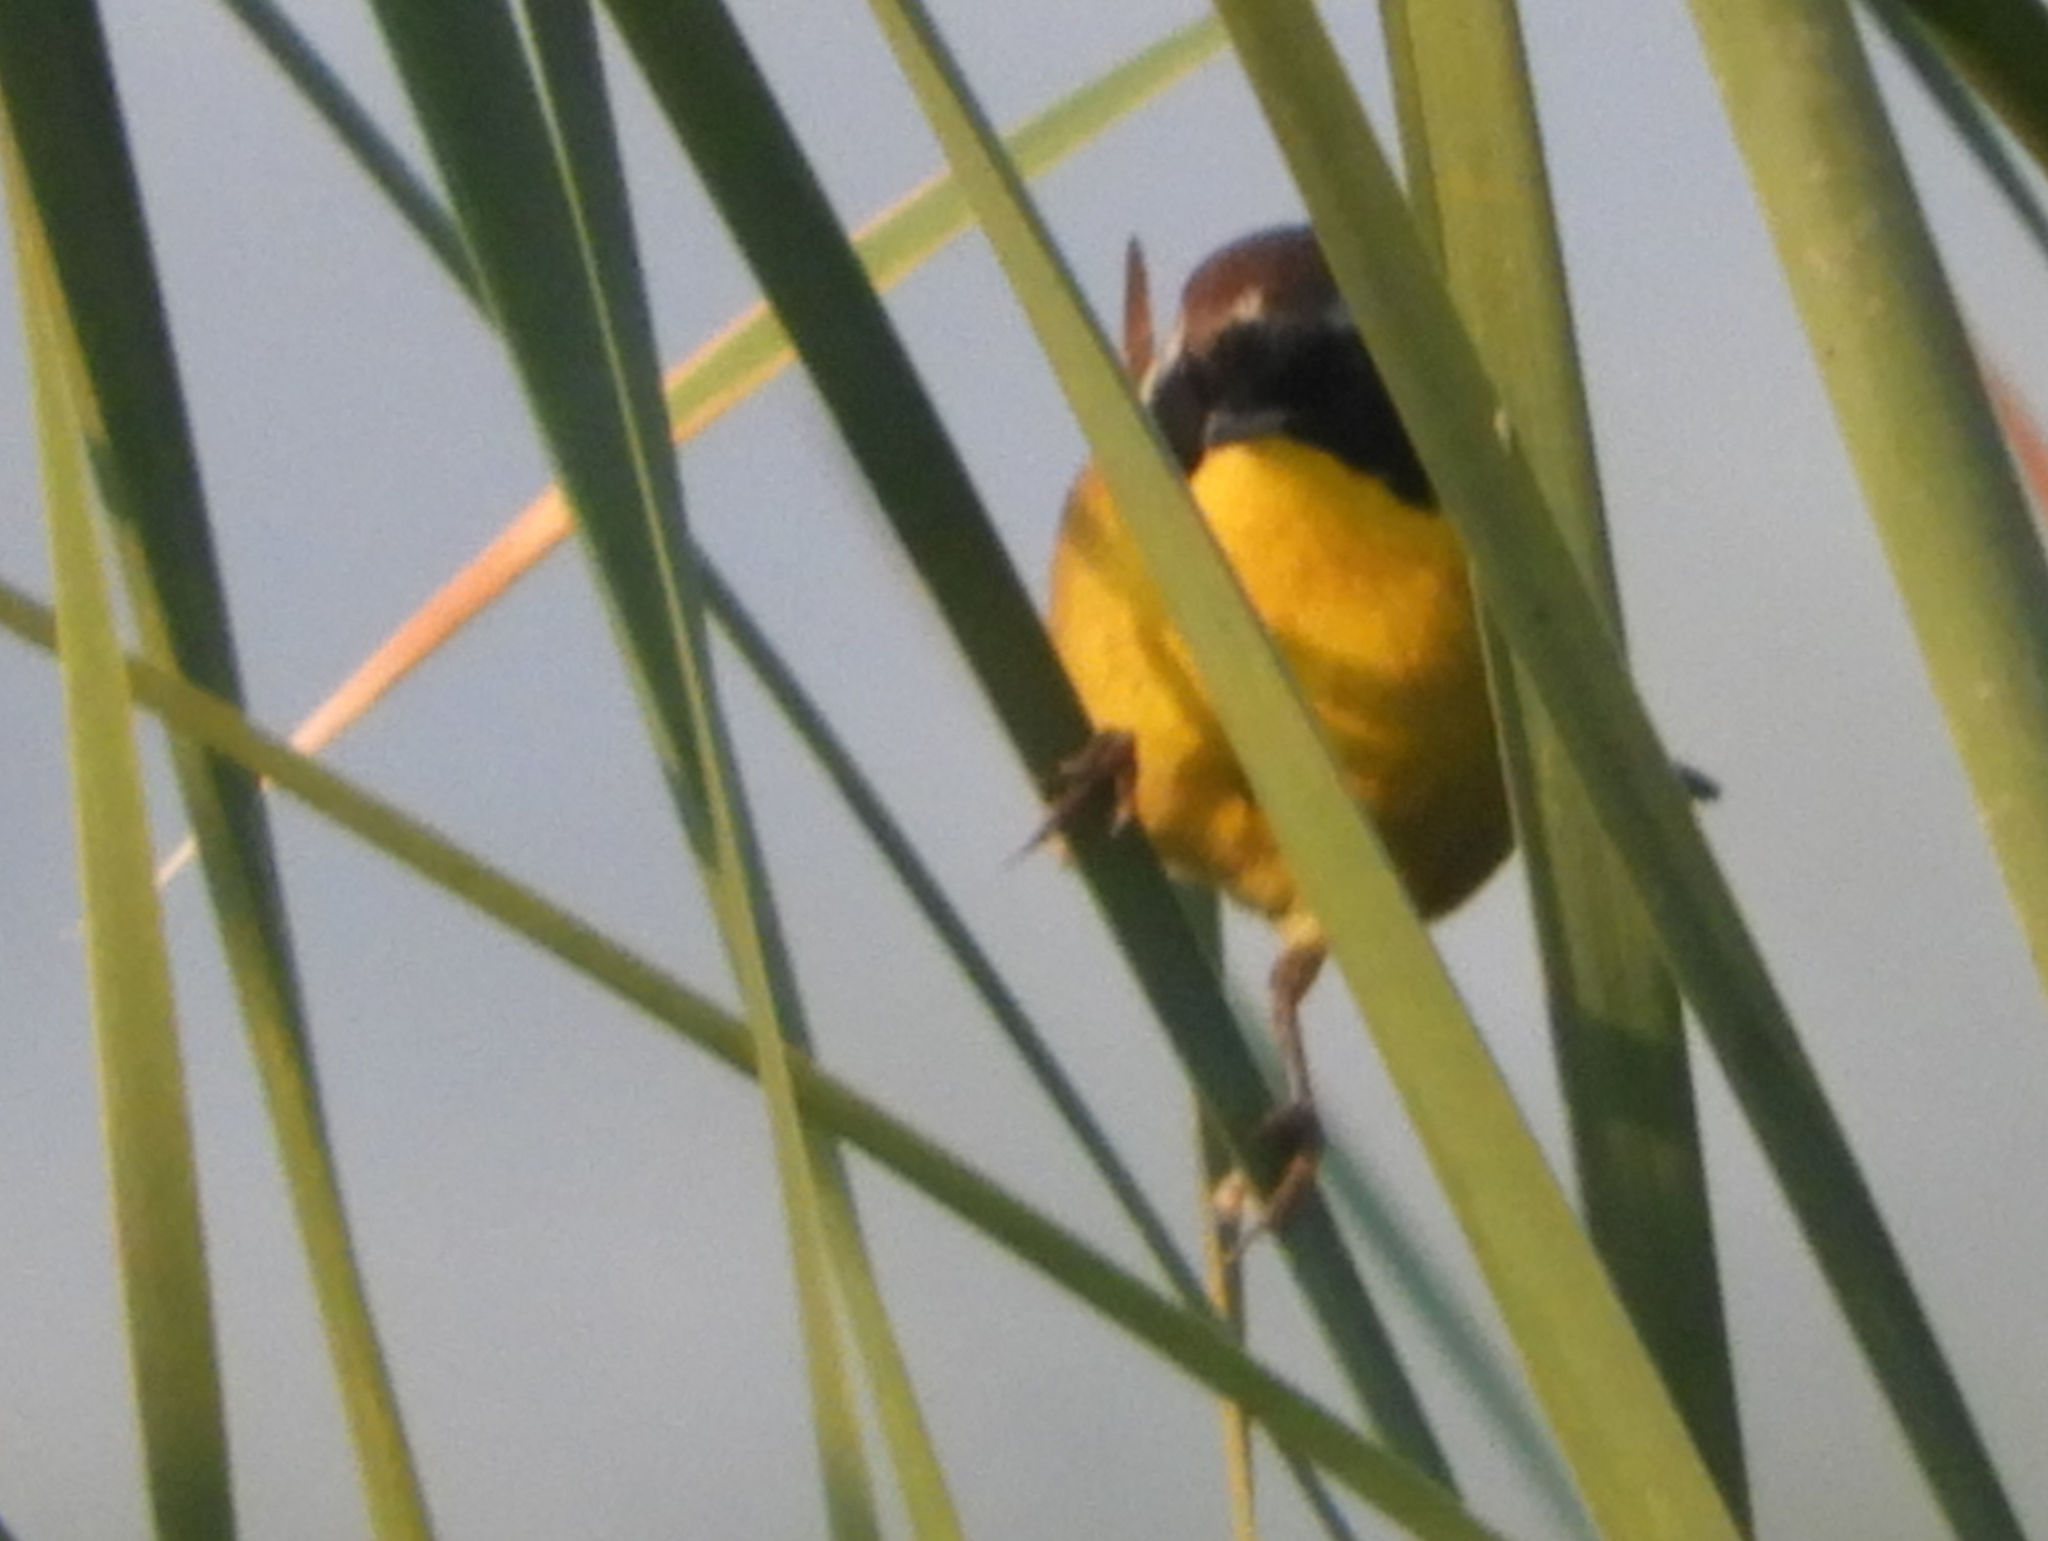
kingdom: Animalia
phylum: Chordata
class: Aves
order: Passeriformes
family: Parulidae
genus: Geothlypis
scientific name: Geothlypis trichas
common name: Common yellowthroat
